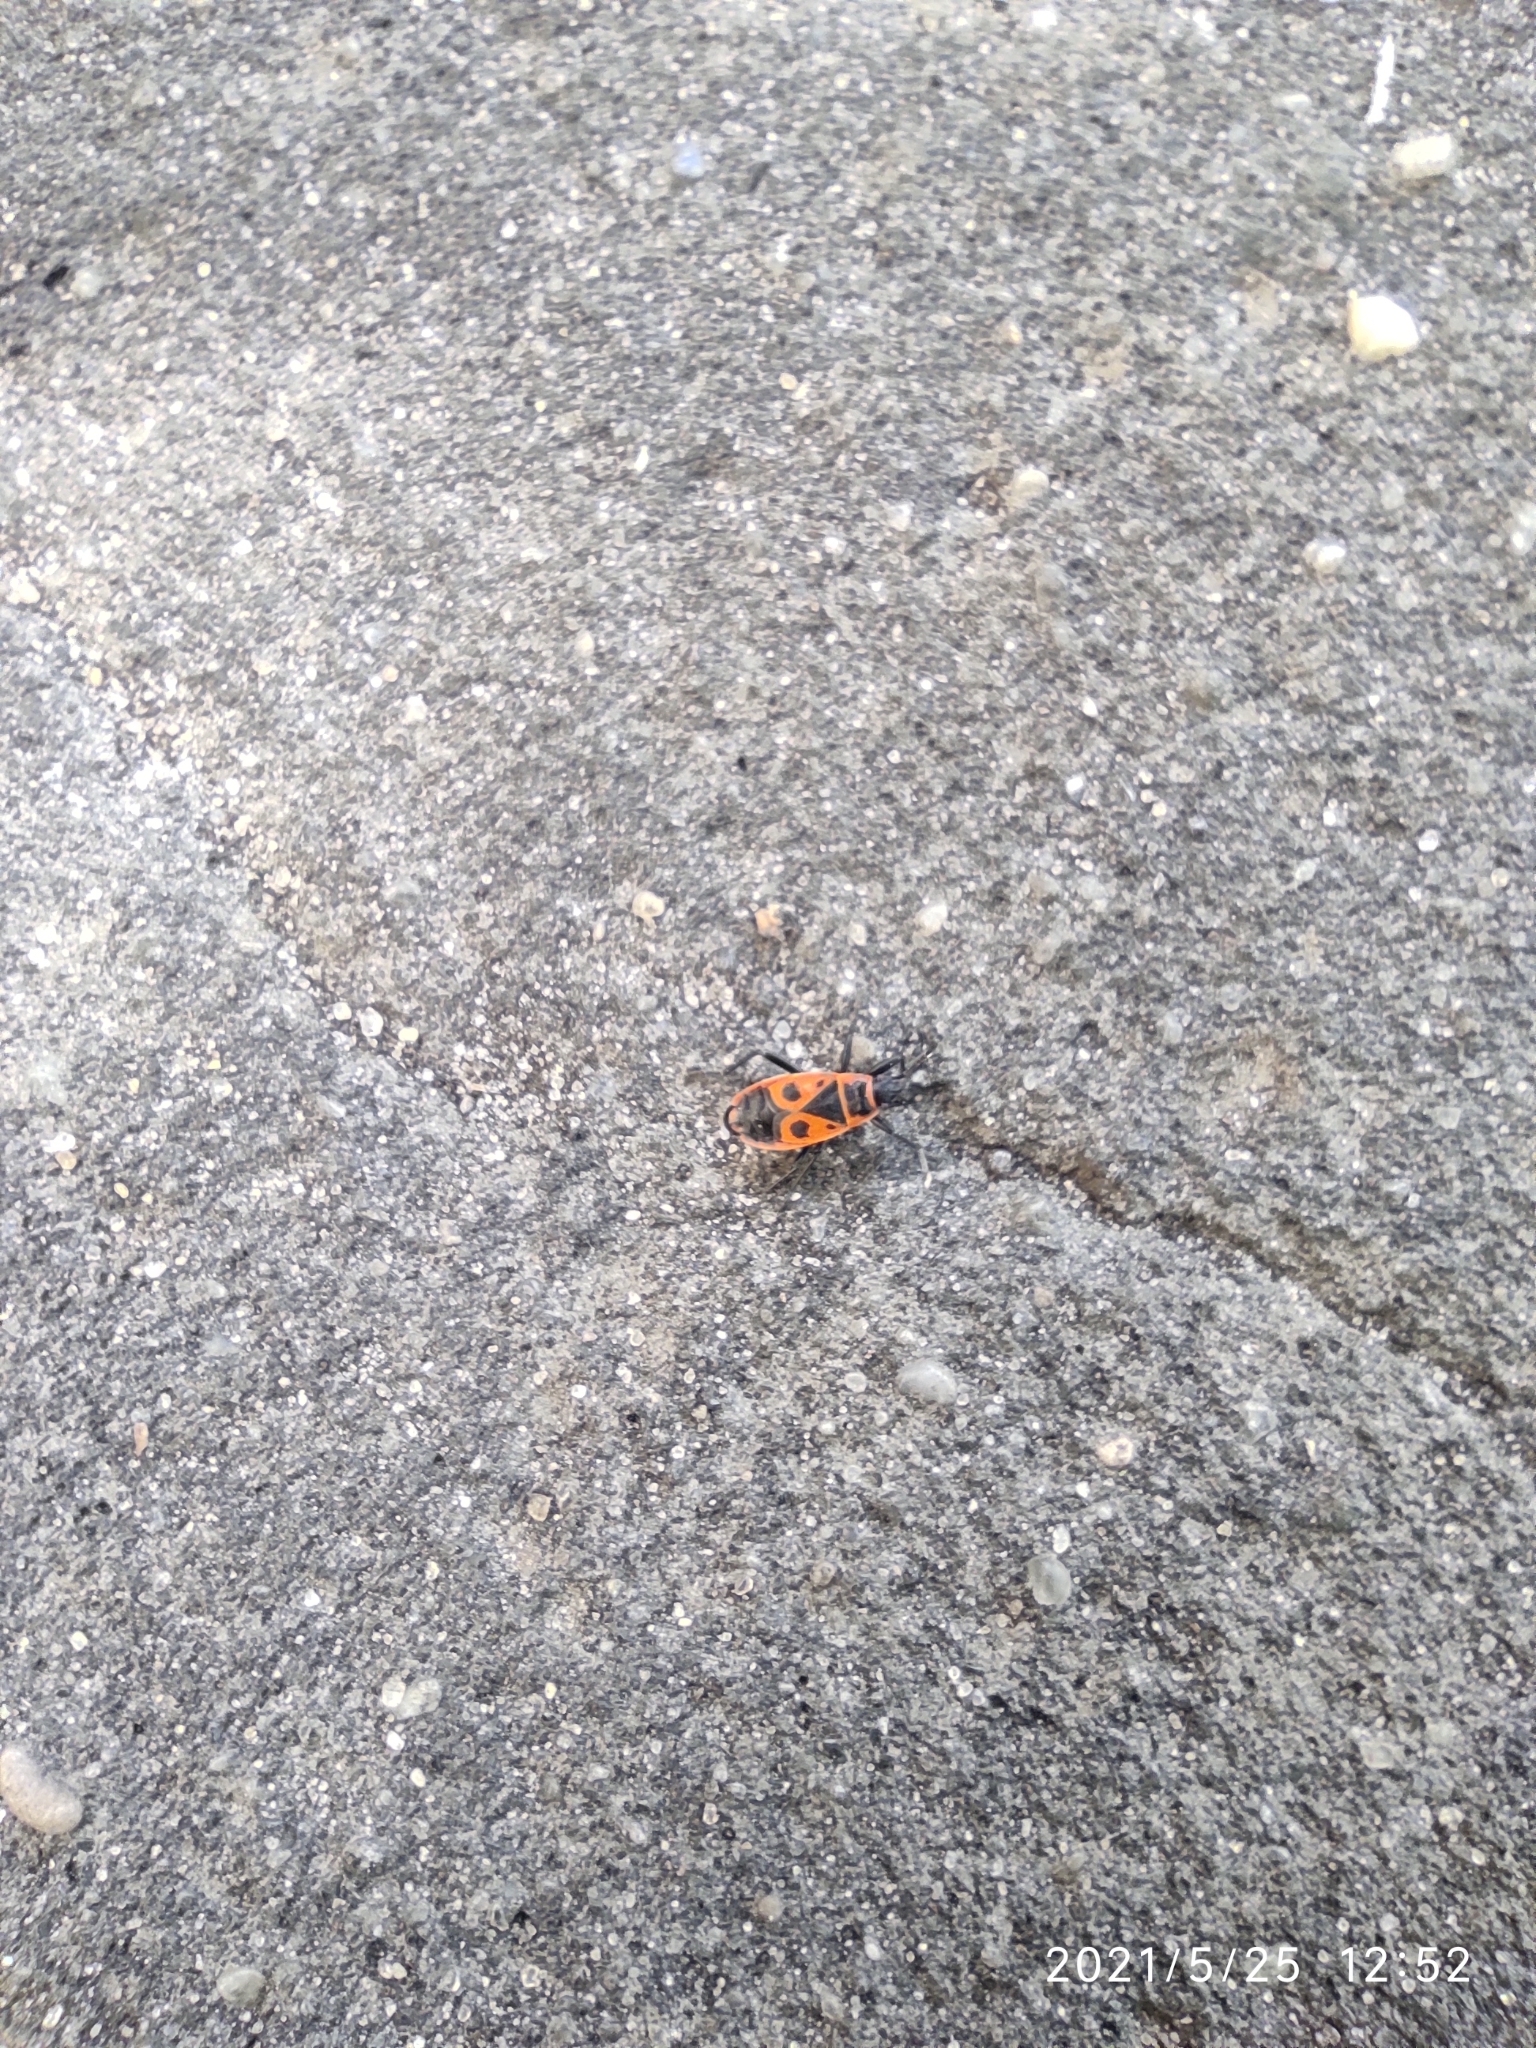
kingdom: Animalia
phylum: Arthropoda
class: Insecta
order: Hemiptera
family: Pyrrhocoridae
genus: Pyrrhocoris
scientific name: Pyrrhocoris apterus
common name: Firebug
